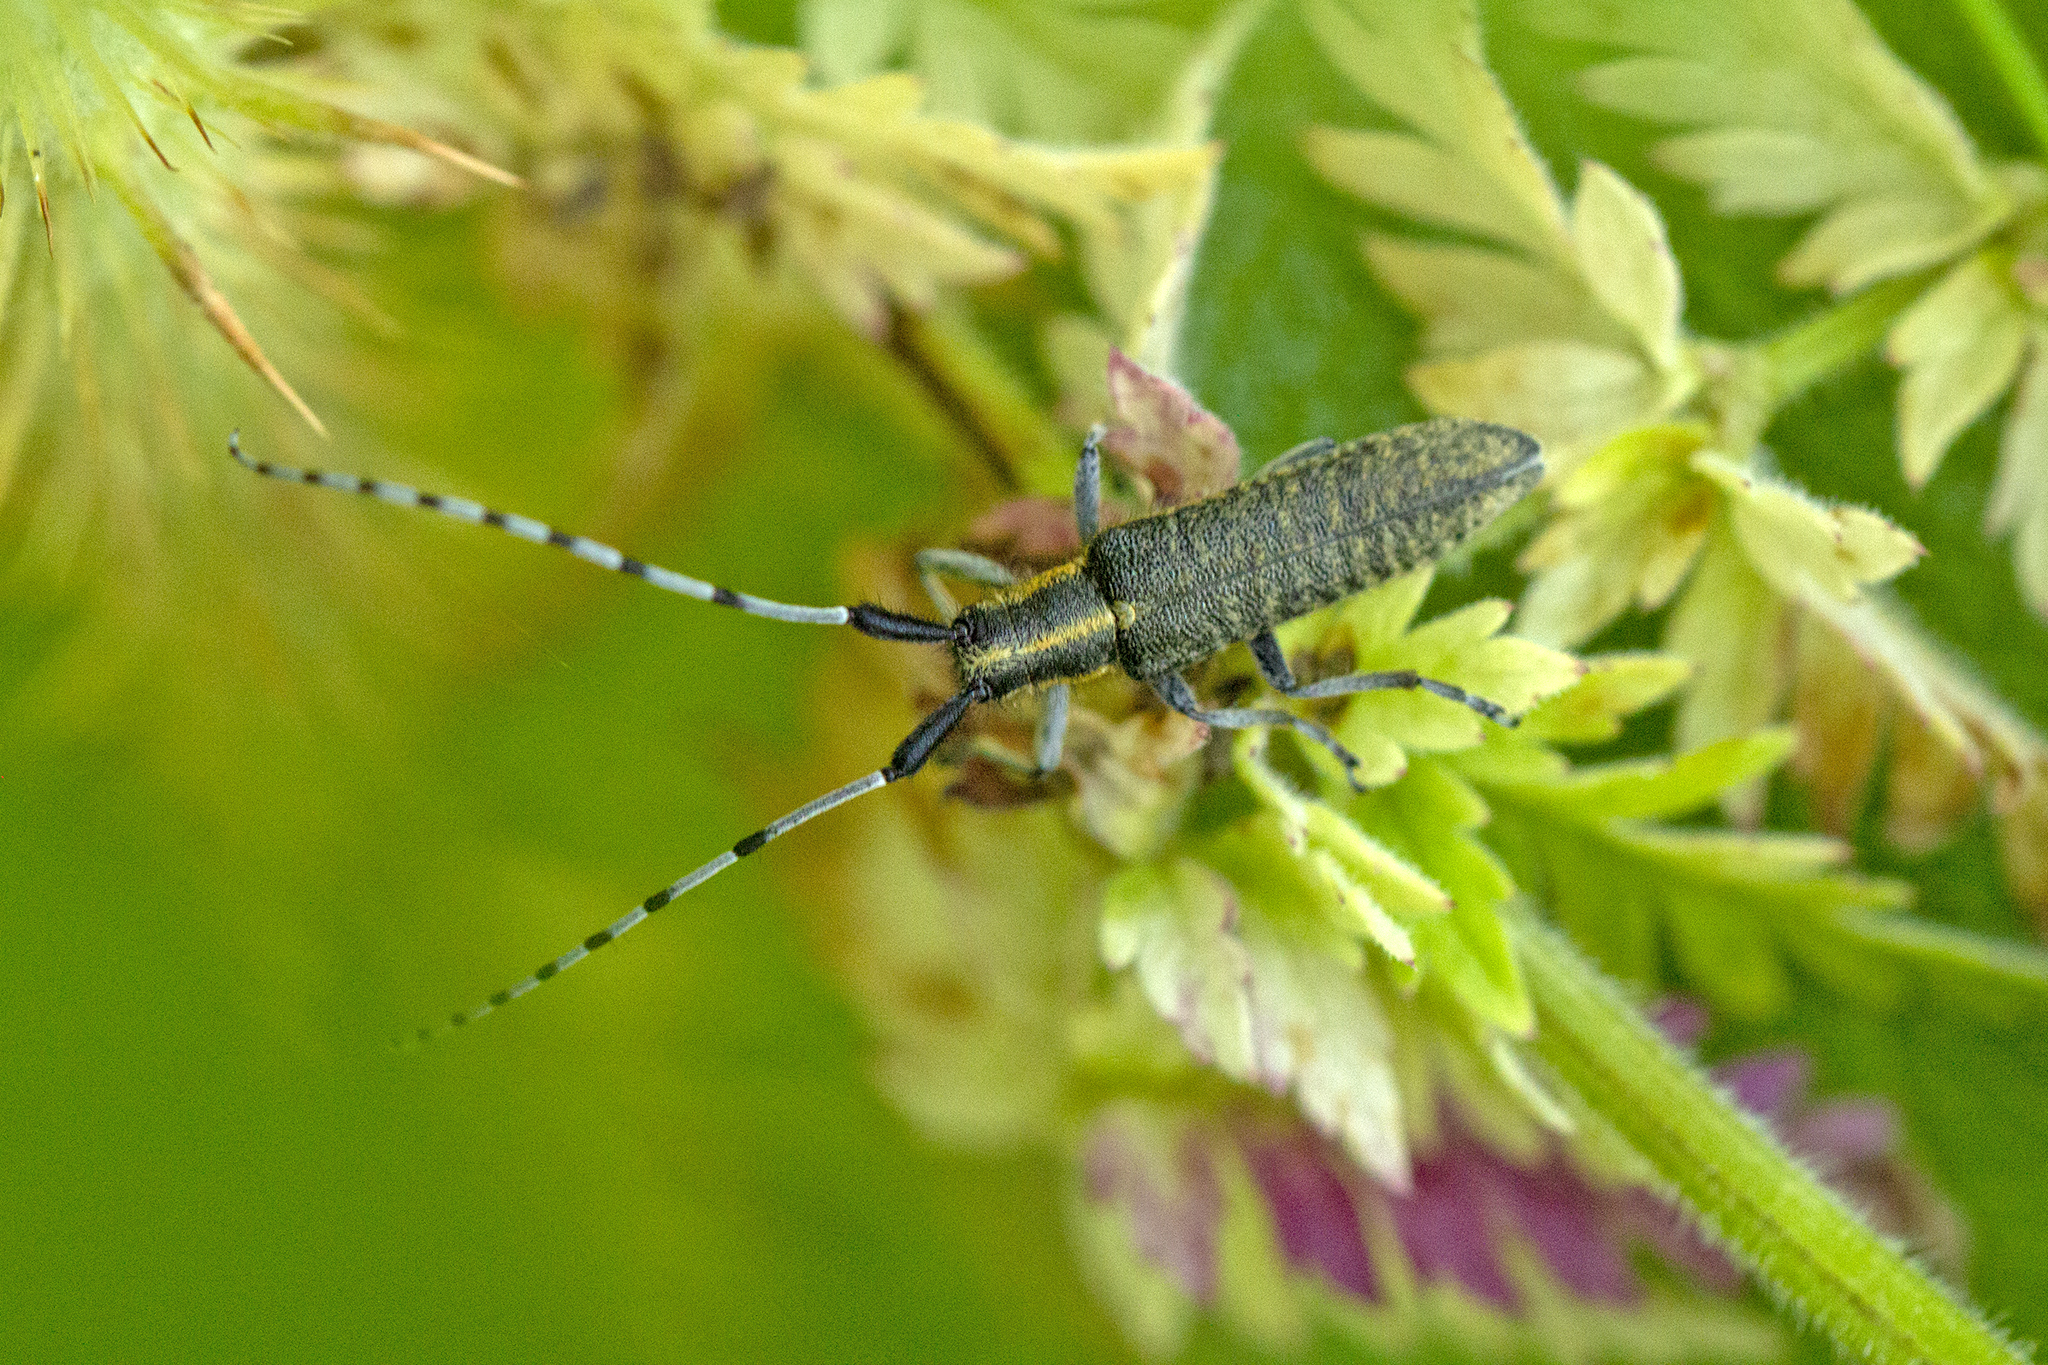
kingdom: Animalia
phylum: Arthropoda
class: Insecta
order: Coleoptera
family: Cerambycidae
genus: Agapanthia
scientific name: Agapanthia villosoviridescens
